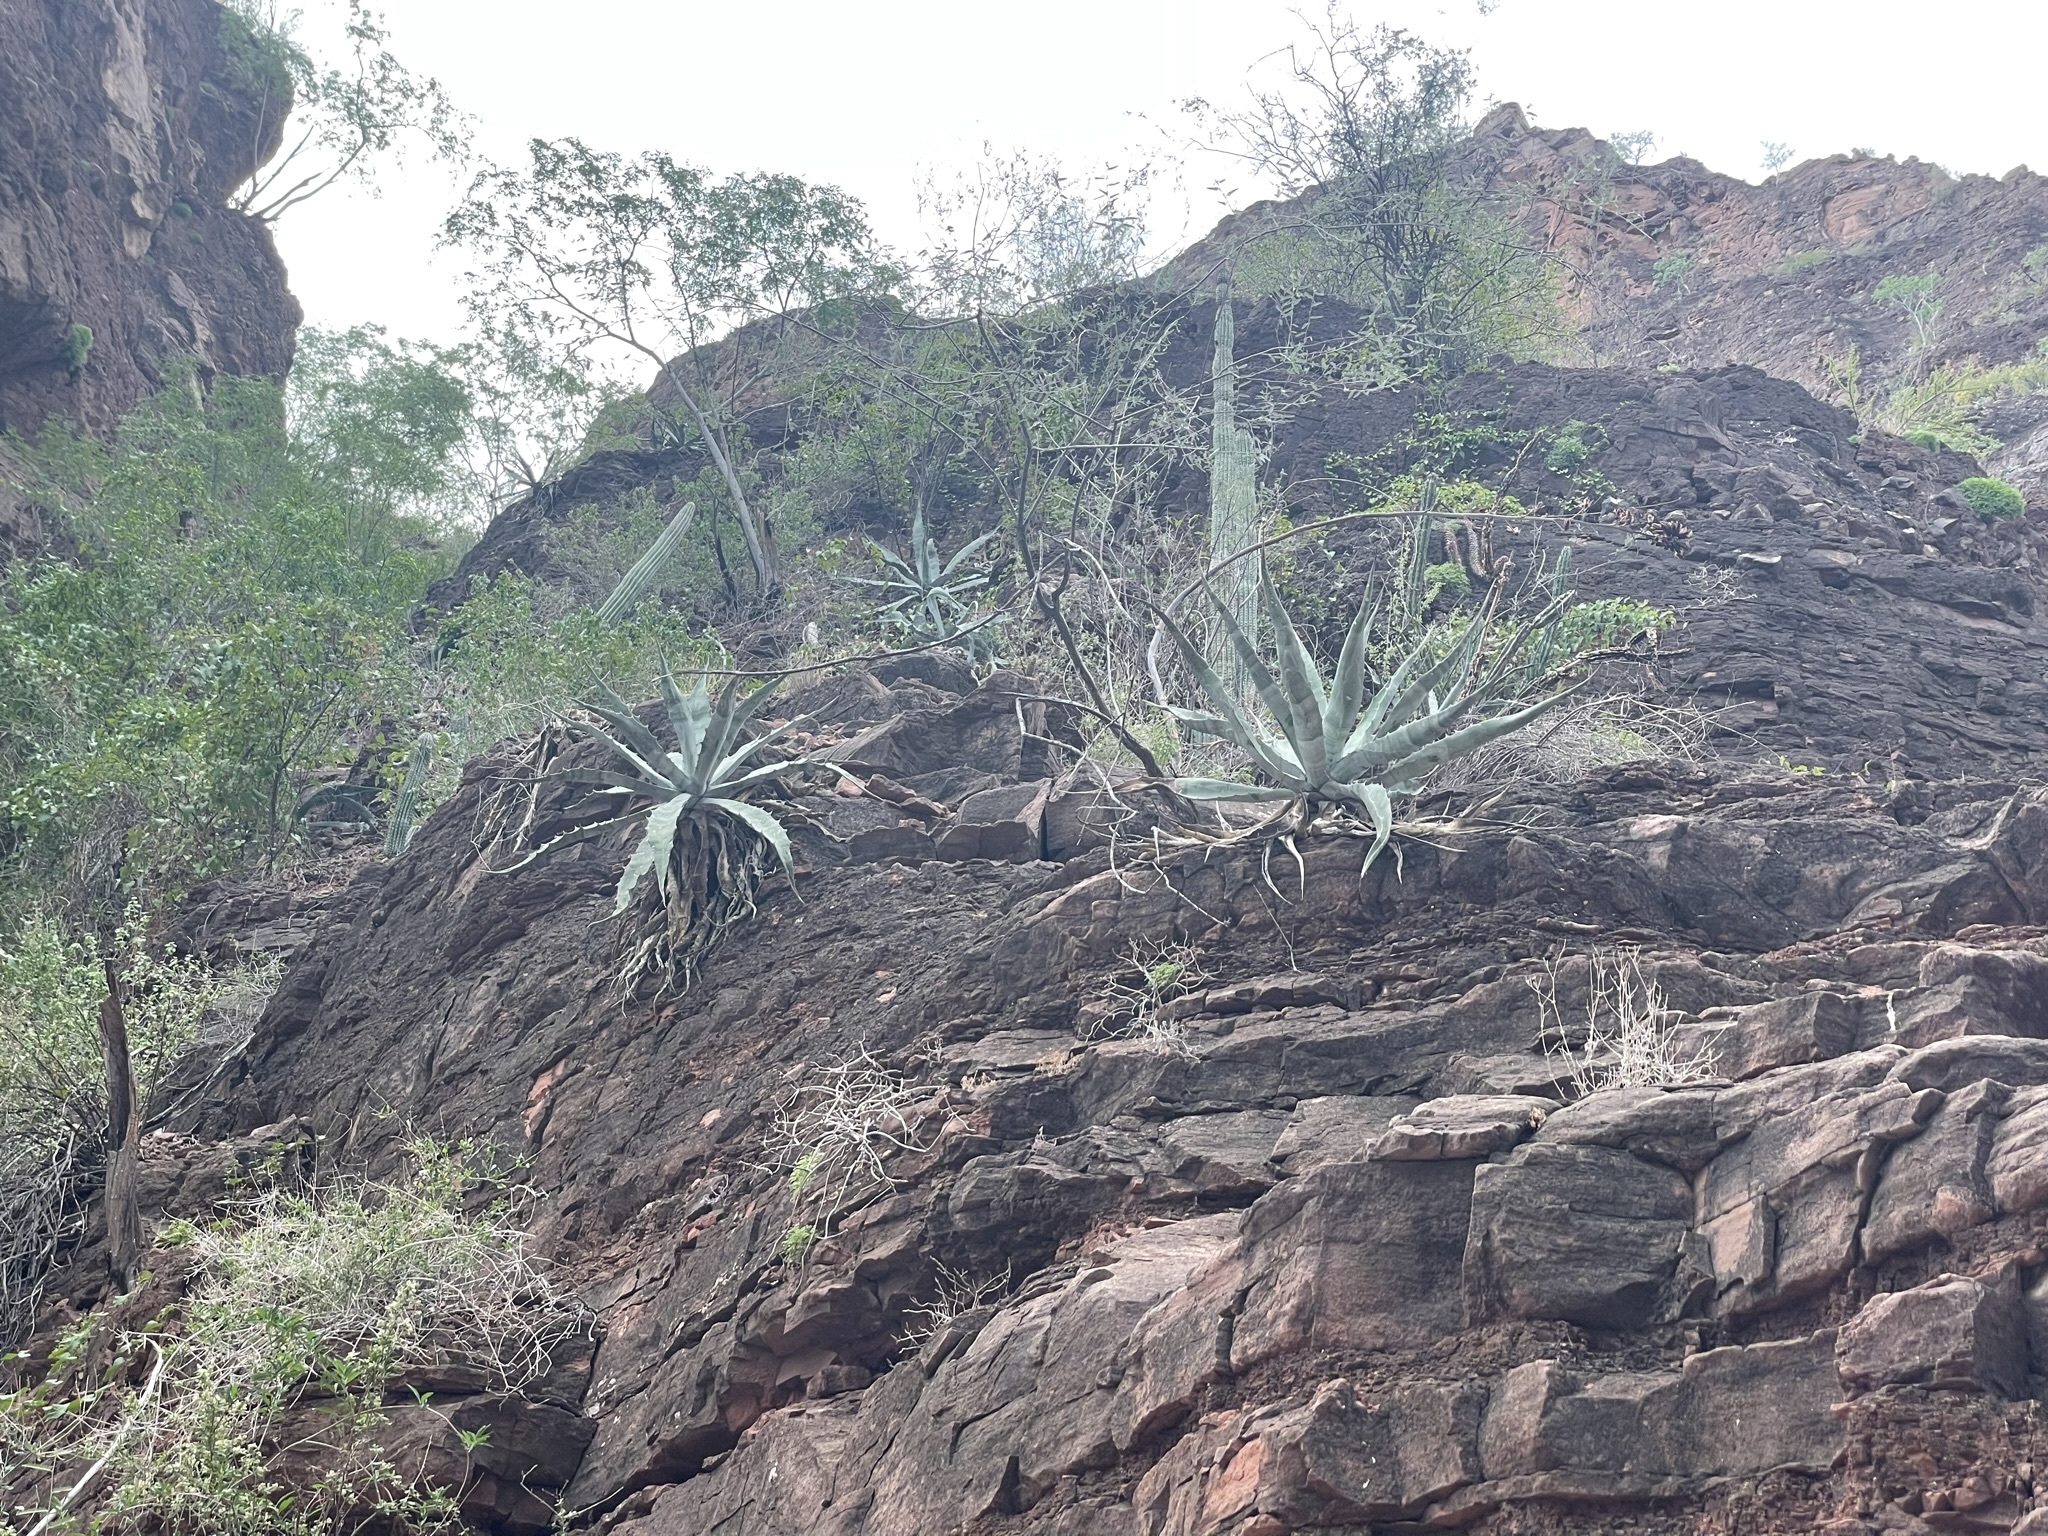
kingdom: Plantae
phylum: Tracheophyta
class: Liliopsida
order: Asparagales
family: Asparagaceae
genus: Agave
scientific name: Agave sobria
